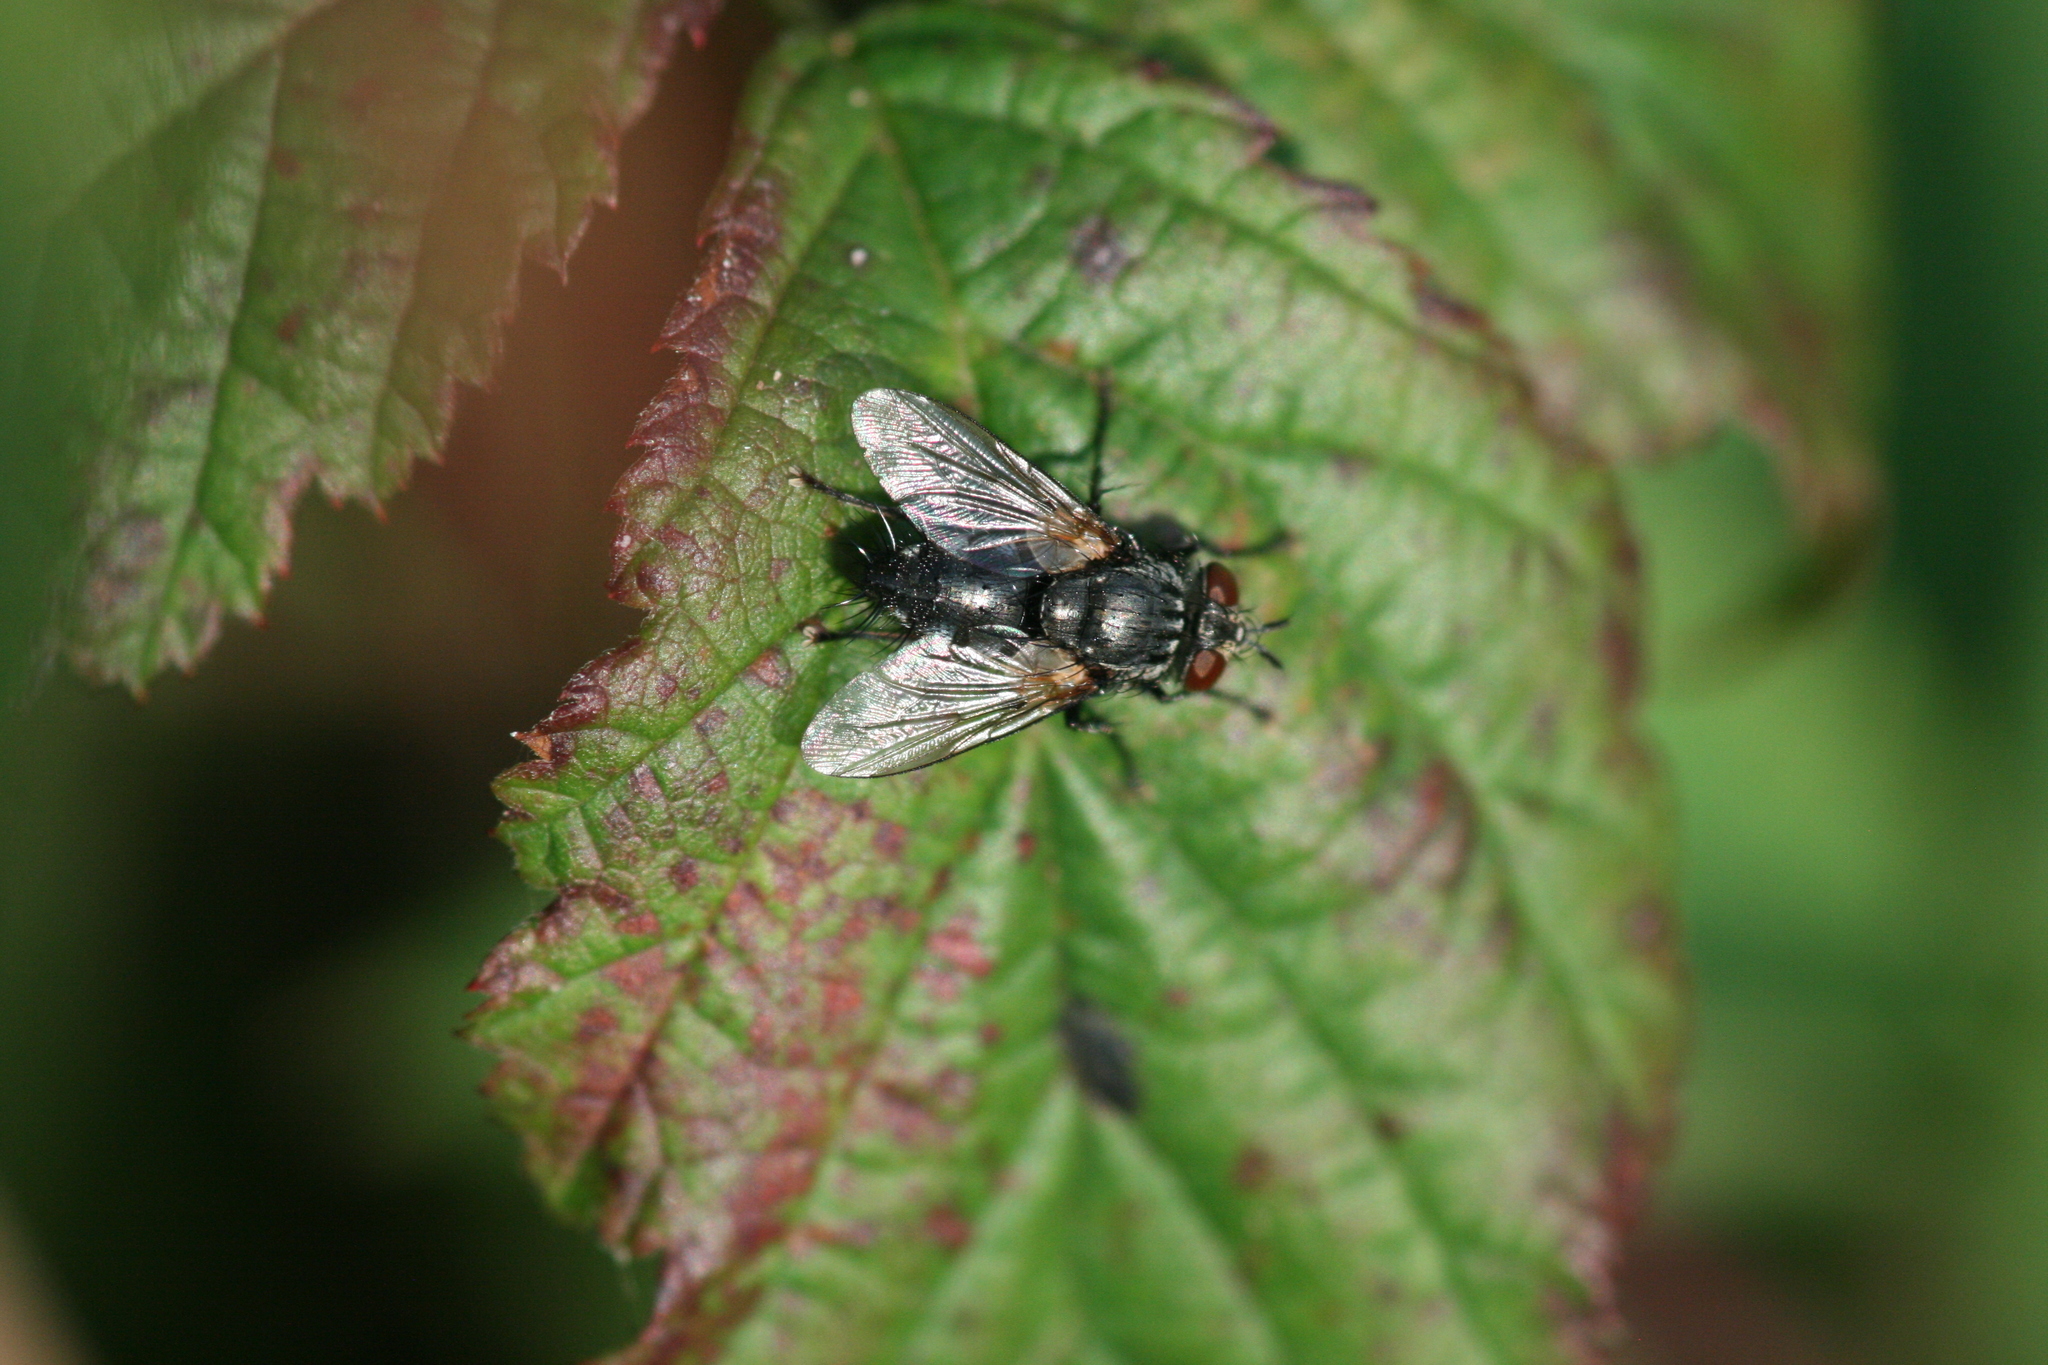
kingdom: Animalia
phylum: Arthropoda
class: Insecta
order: Diptera
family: Tachinidae
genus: Voria
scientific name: Voria ruralis
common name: Parasitic fly
